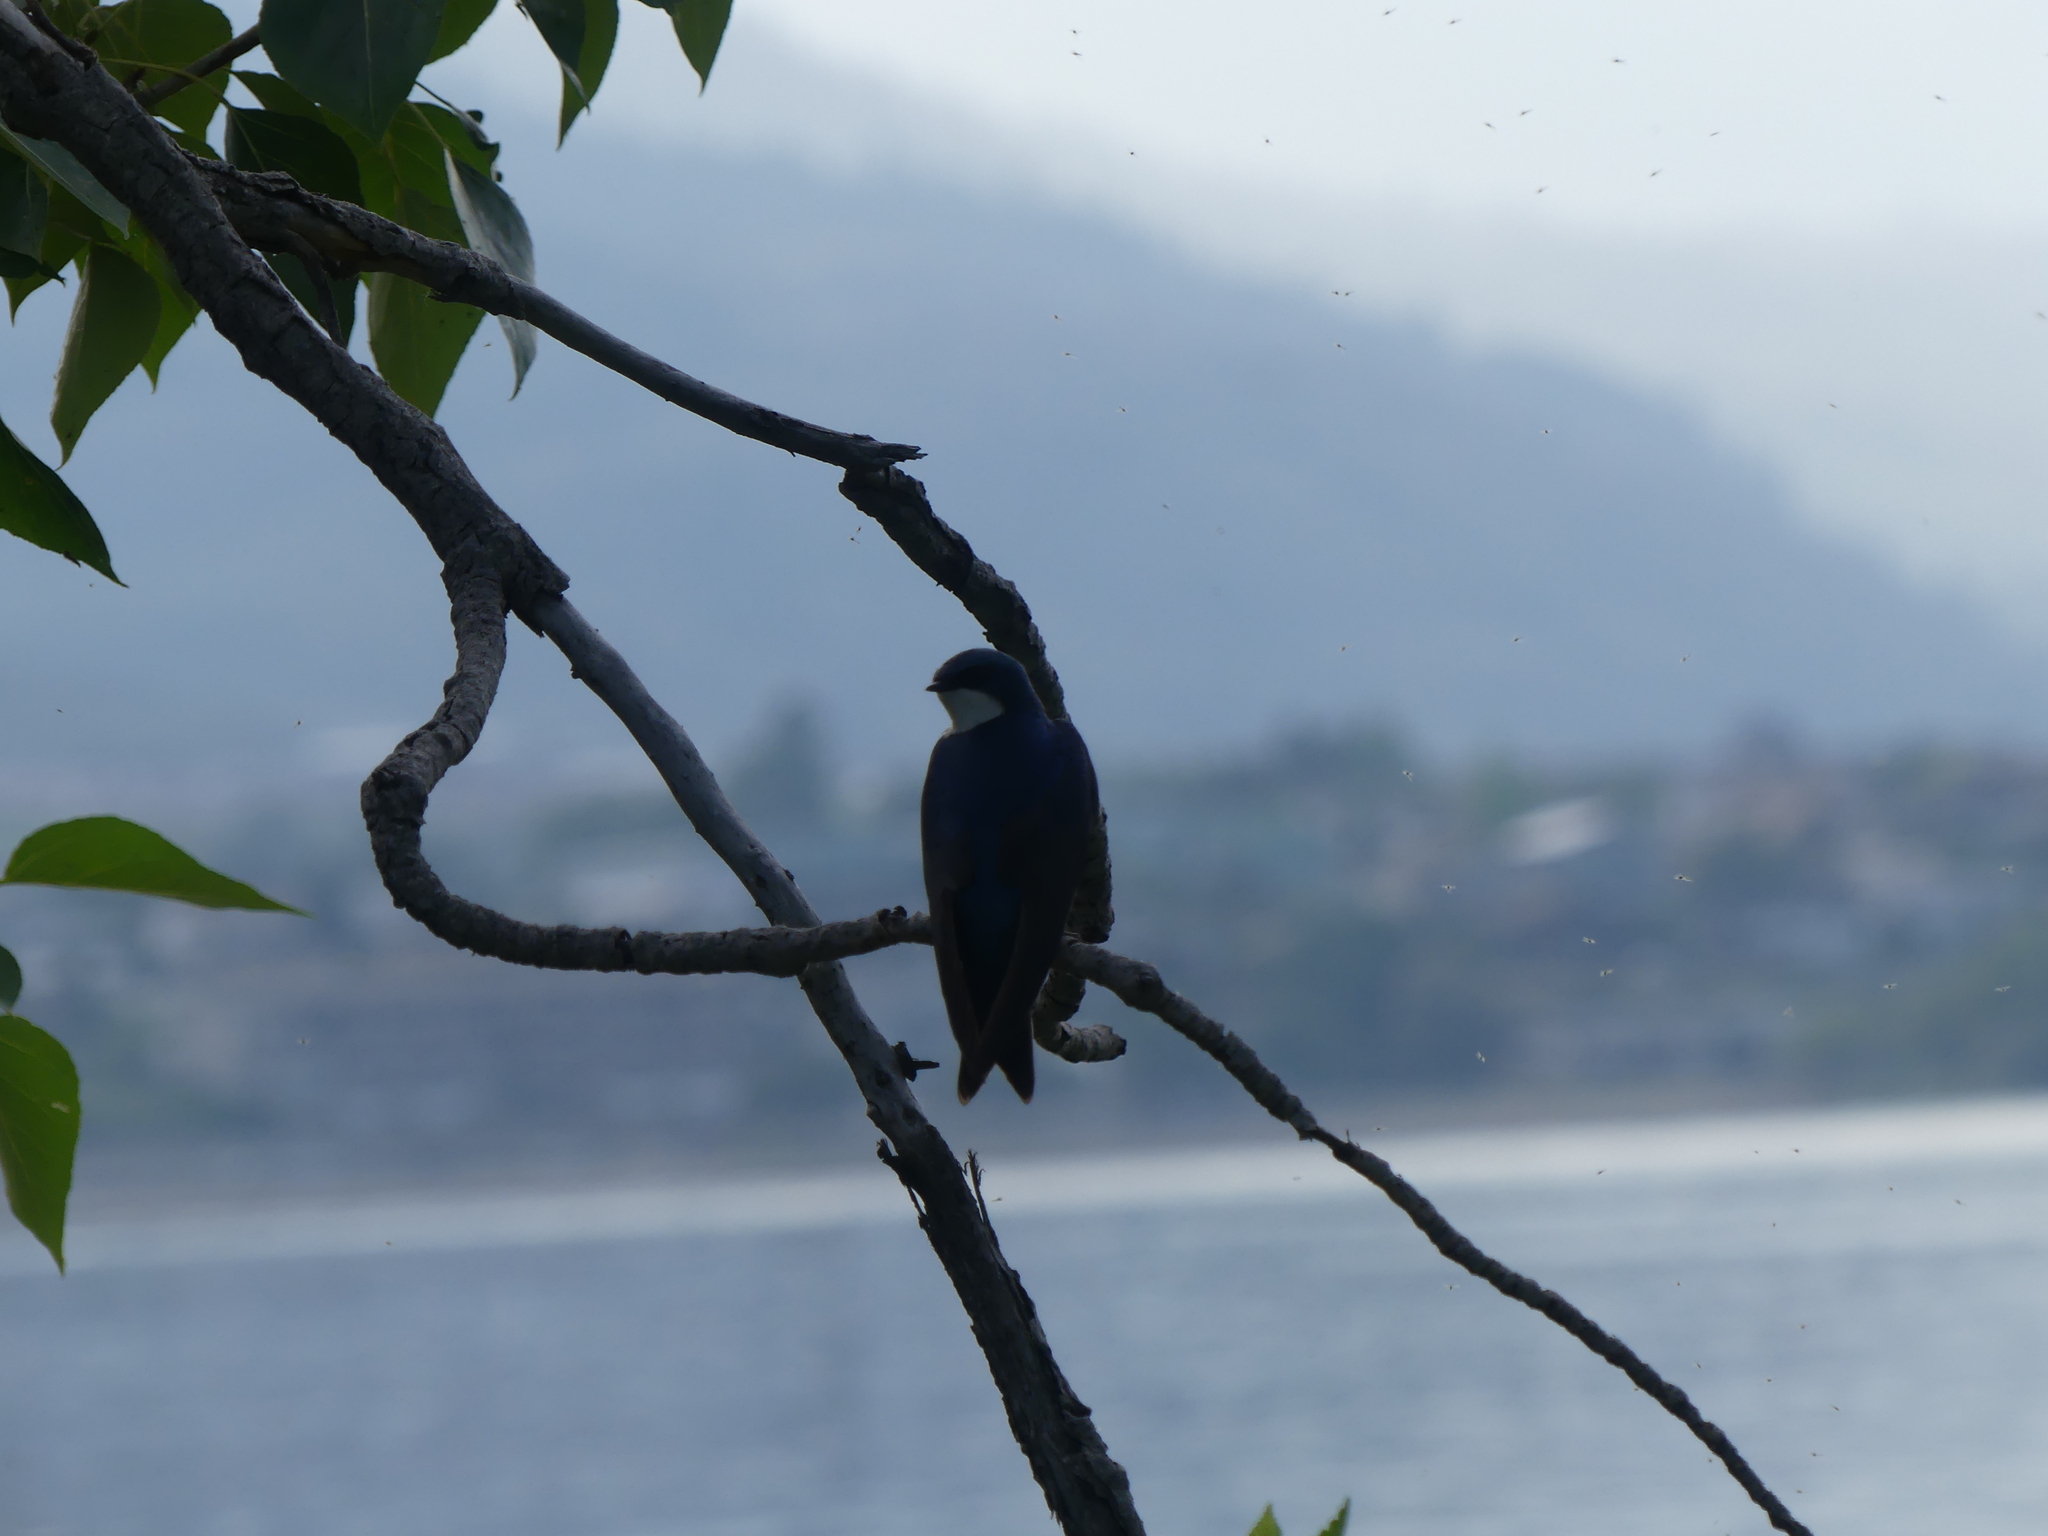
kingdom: Animalia
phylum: Chordata
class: Aves
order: Passeriformes
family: Hirundinidae
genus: Tachycineta
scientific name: Tachycineta bicolor
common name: Tree swallow
